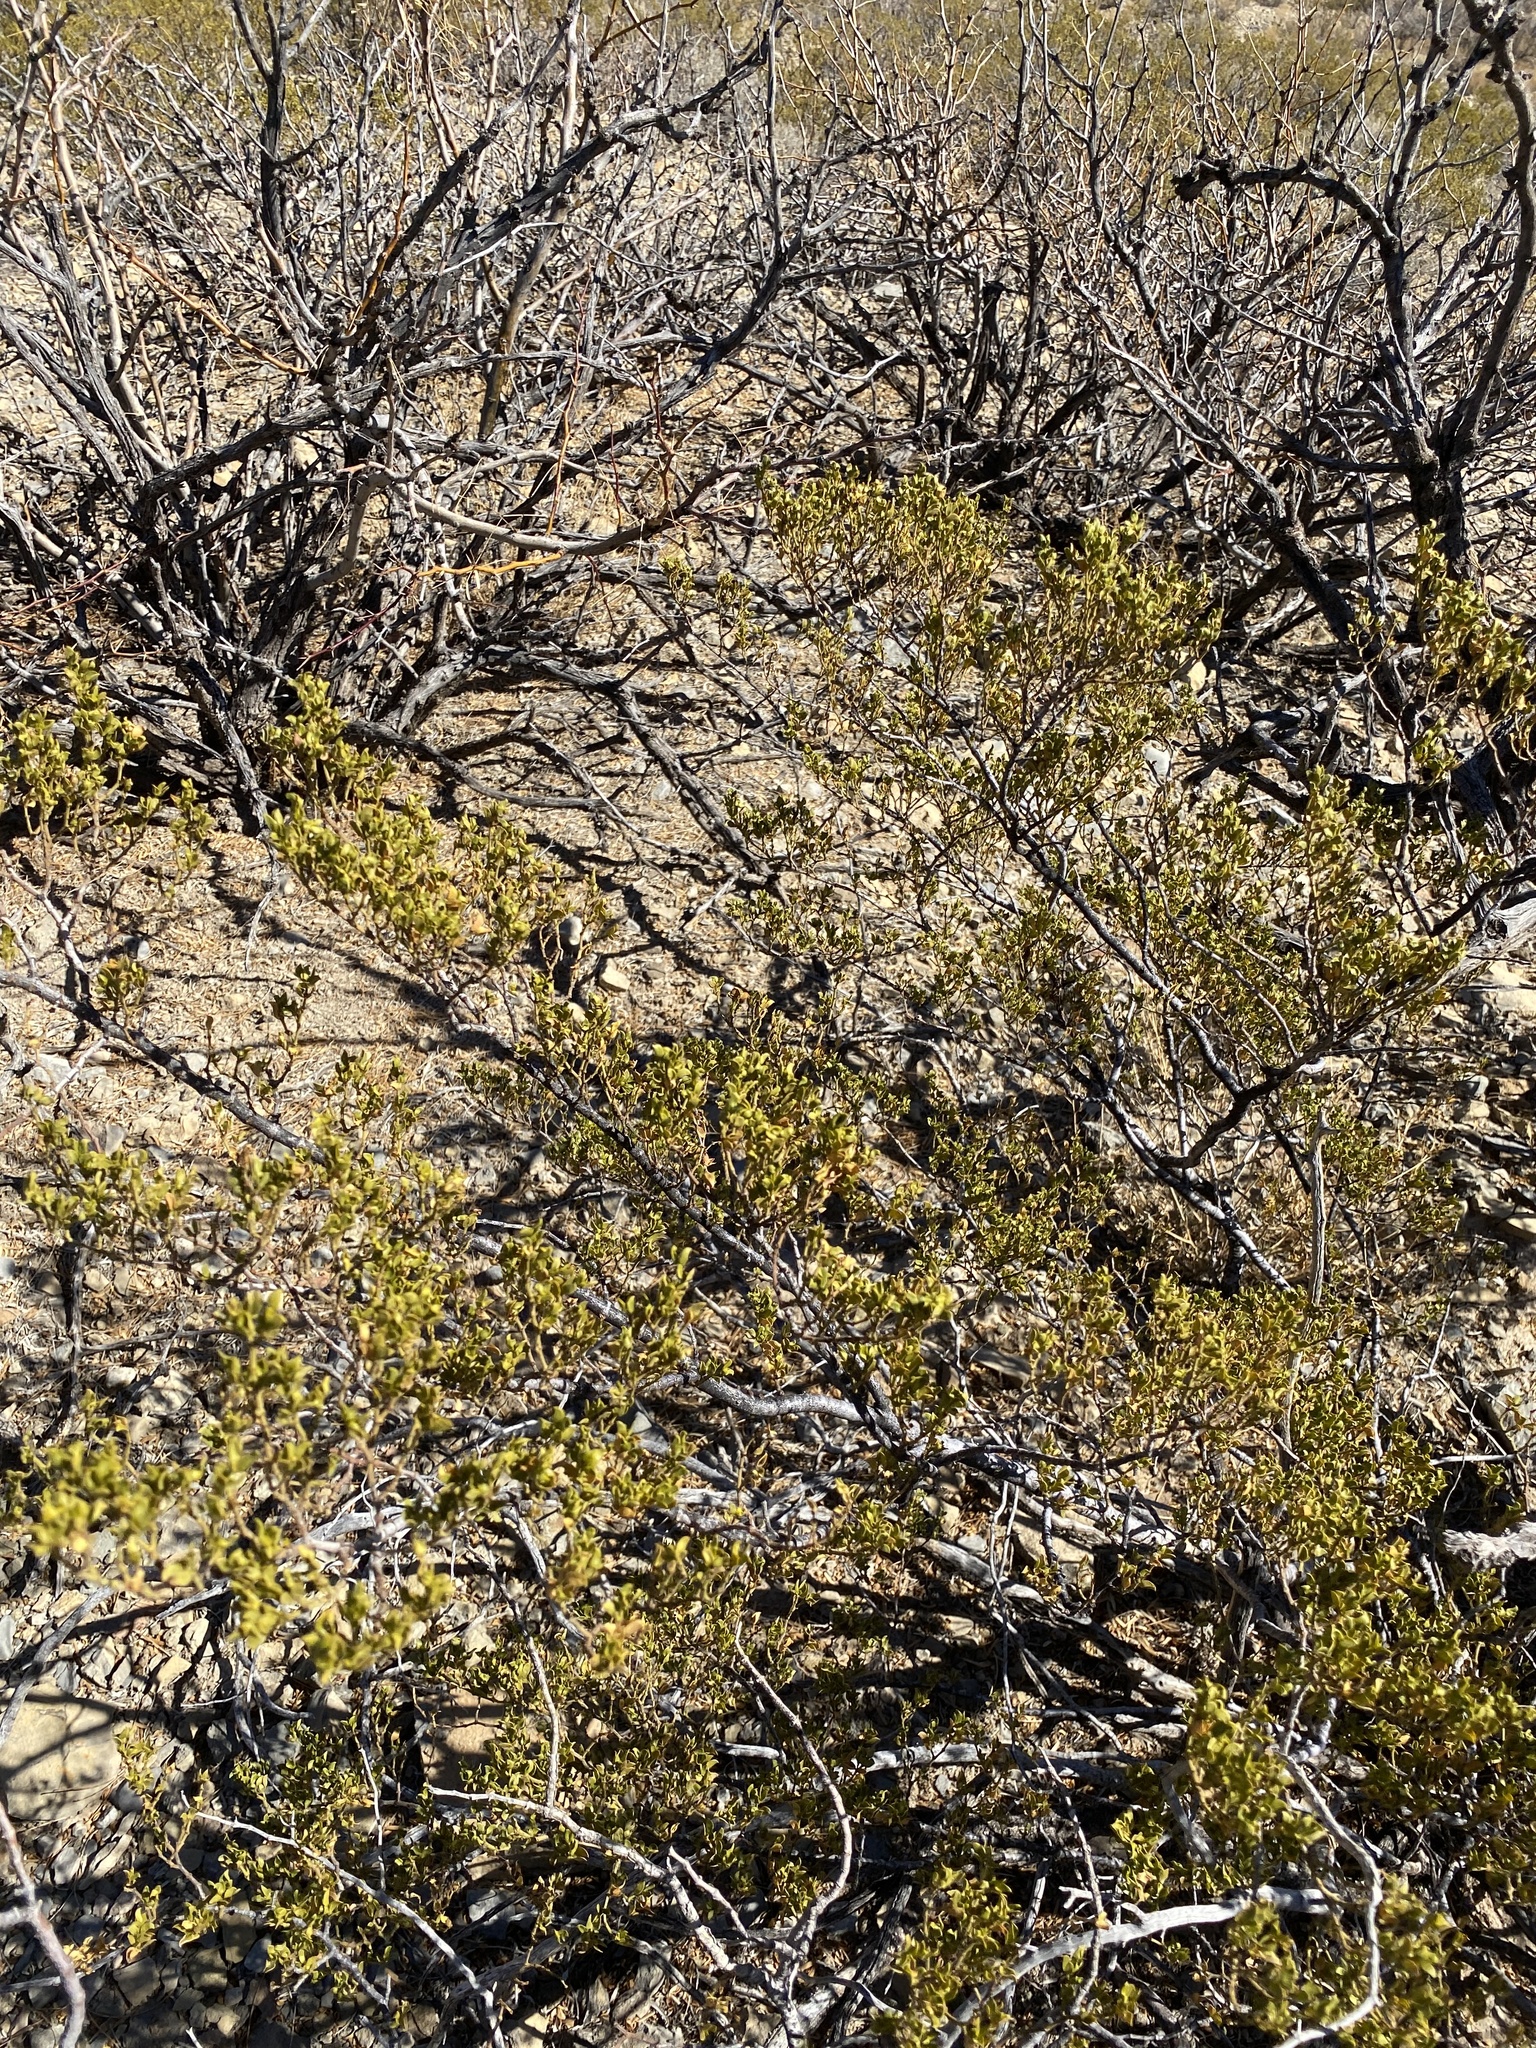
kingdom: Plantae
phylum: Tracheophyta
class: Magnoliopsida
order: Zygophyllales
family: Zygophyllaceae
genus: Larrea
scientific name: Larrea tridentata
